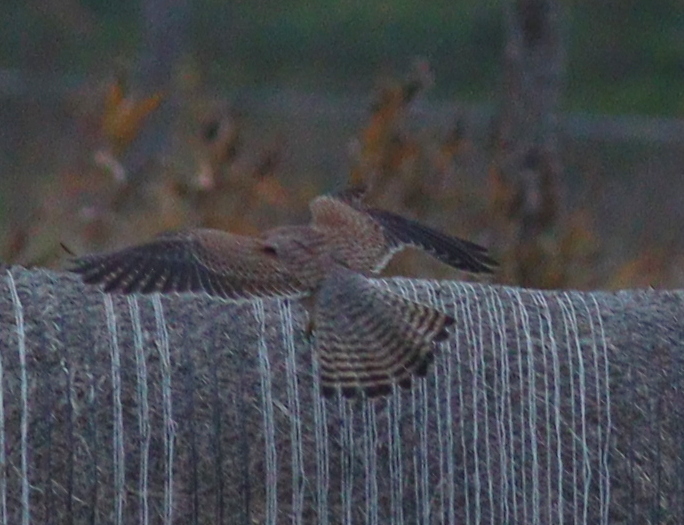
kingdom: Animalia
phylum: Chordata
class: Aves
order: Falconiformes
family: Falconidae
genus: Falco
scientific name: Falco tinnunculus
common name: Common kestrel
